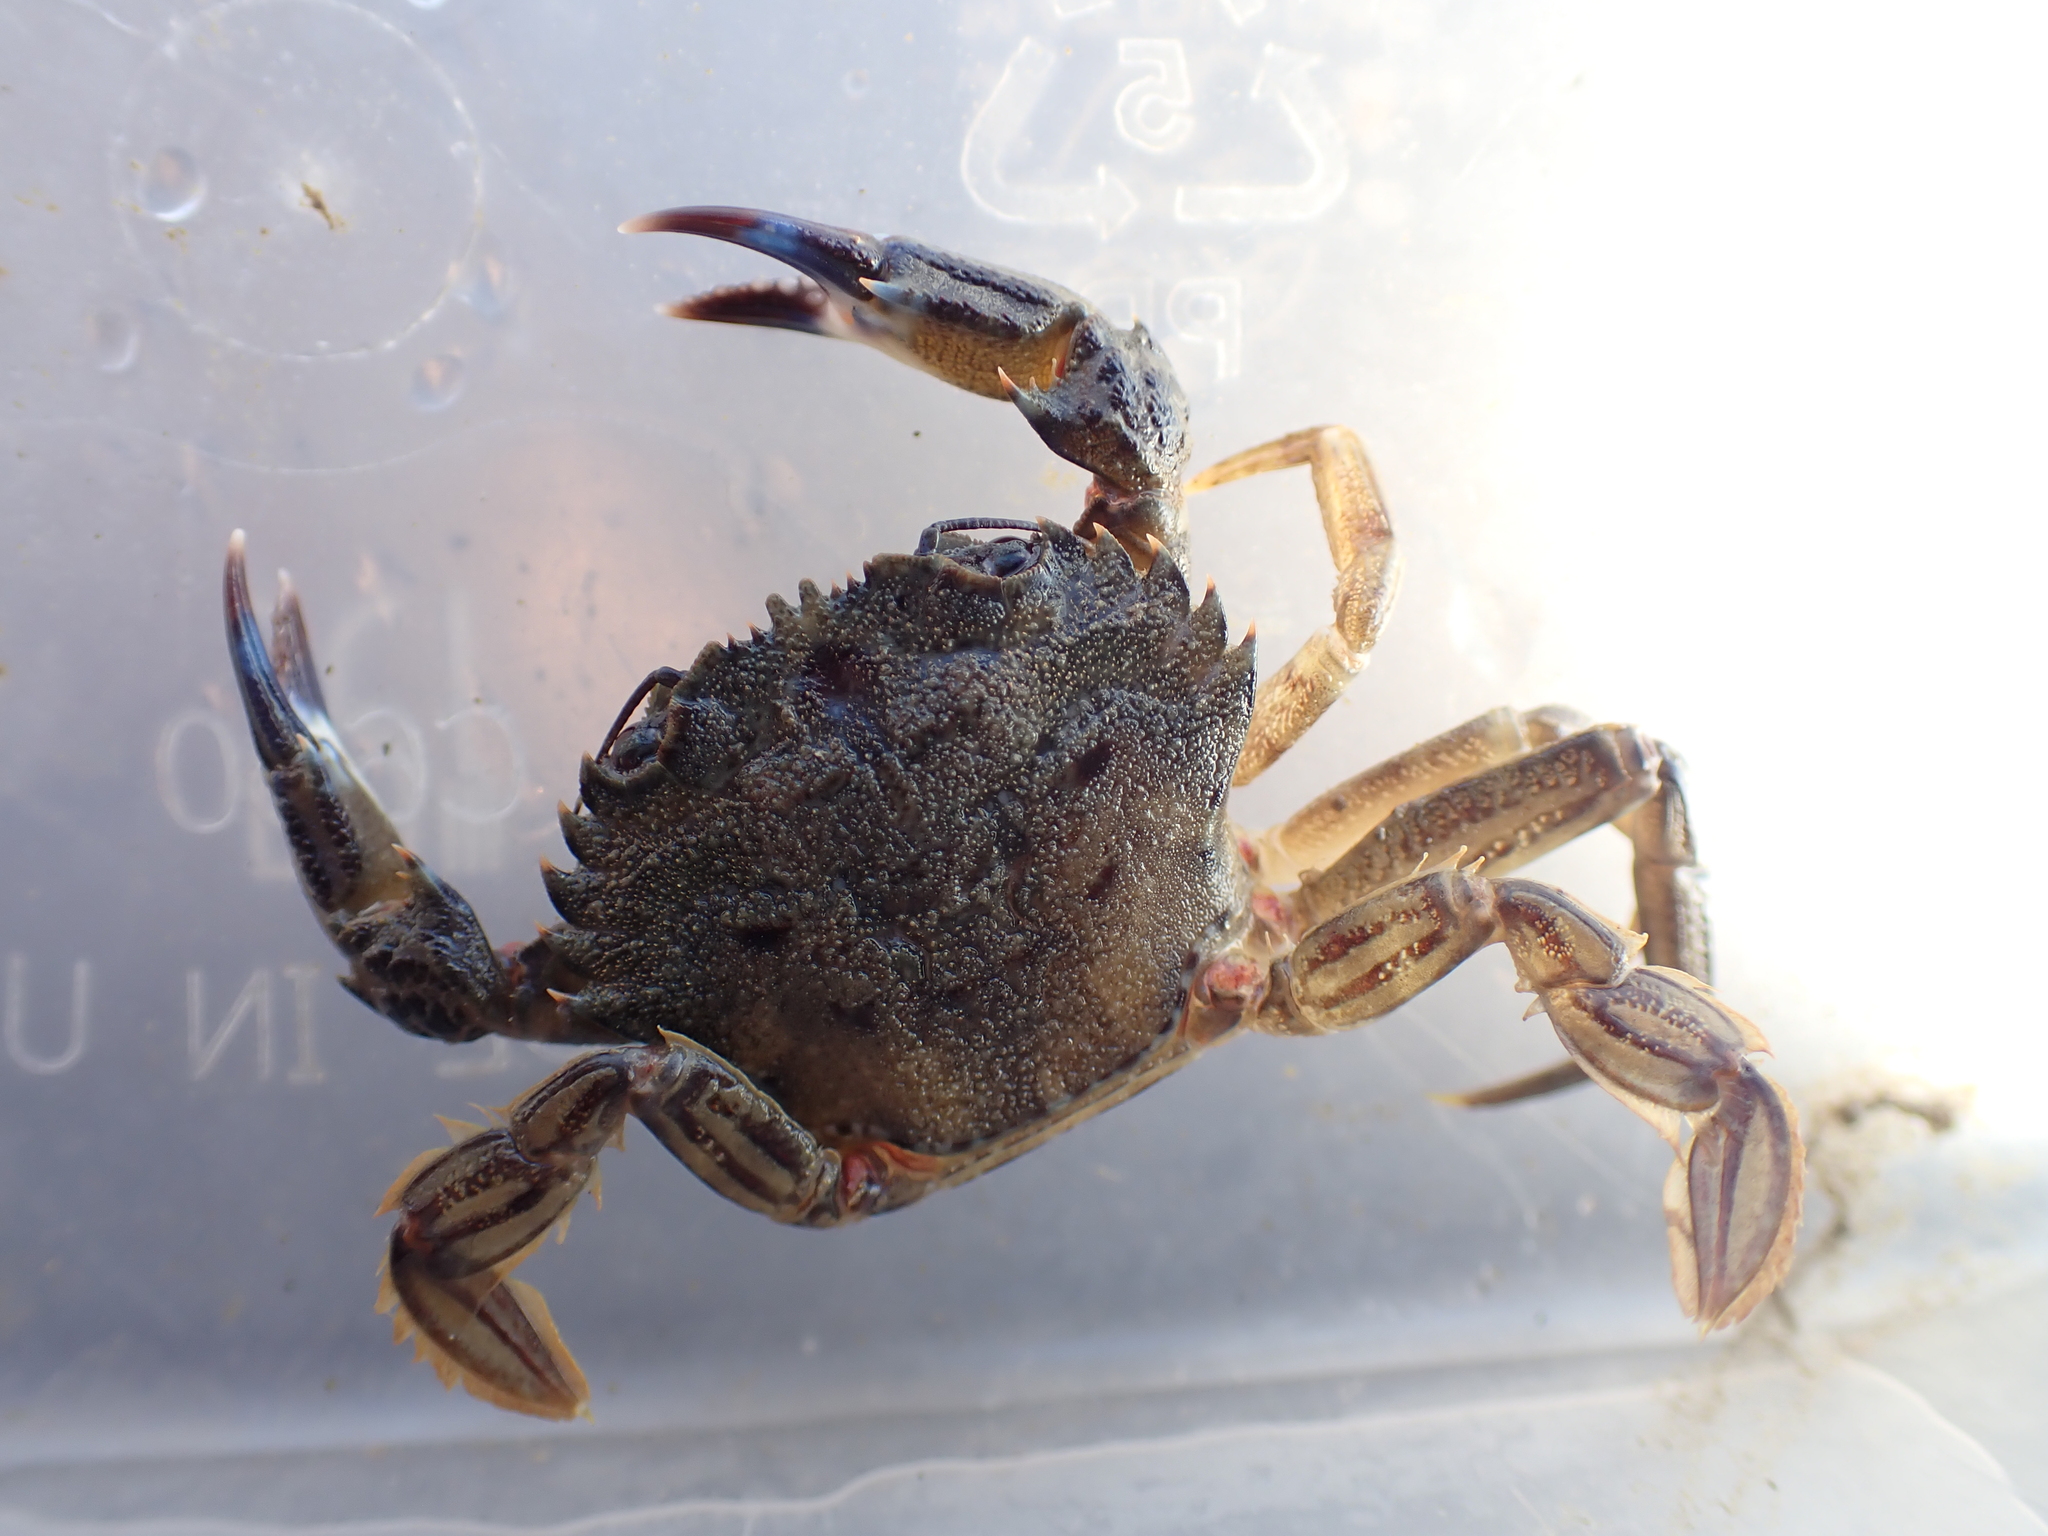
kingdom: Animalia
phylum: Arthropoda
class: Malacostraca
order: Decapoda
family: Polybiidae
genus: Necora
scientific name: Necora puber
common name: Velvet swimming crab
